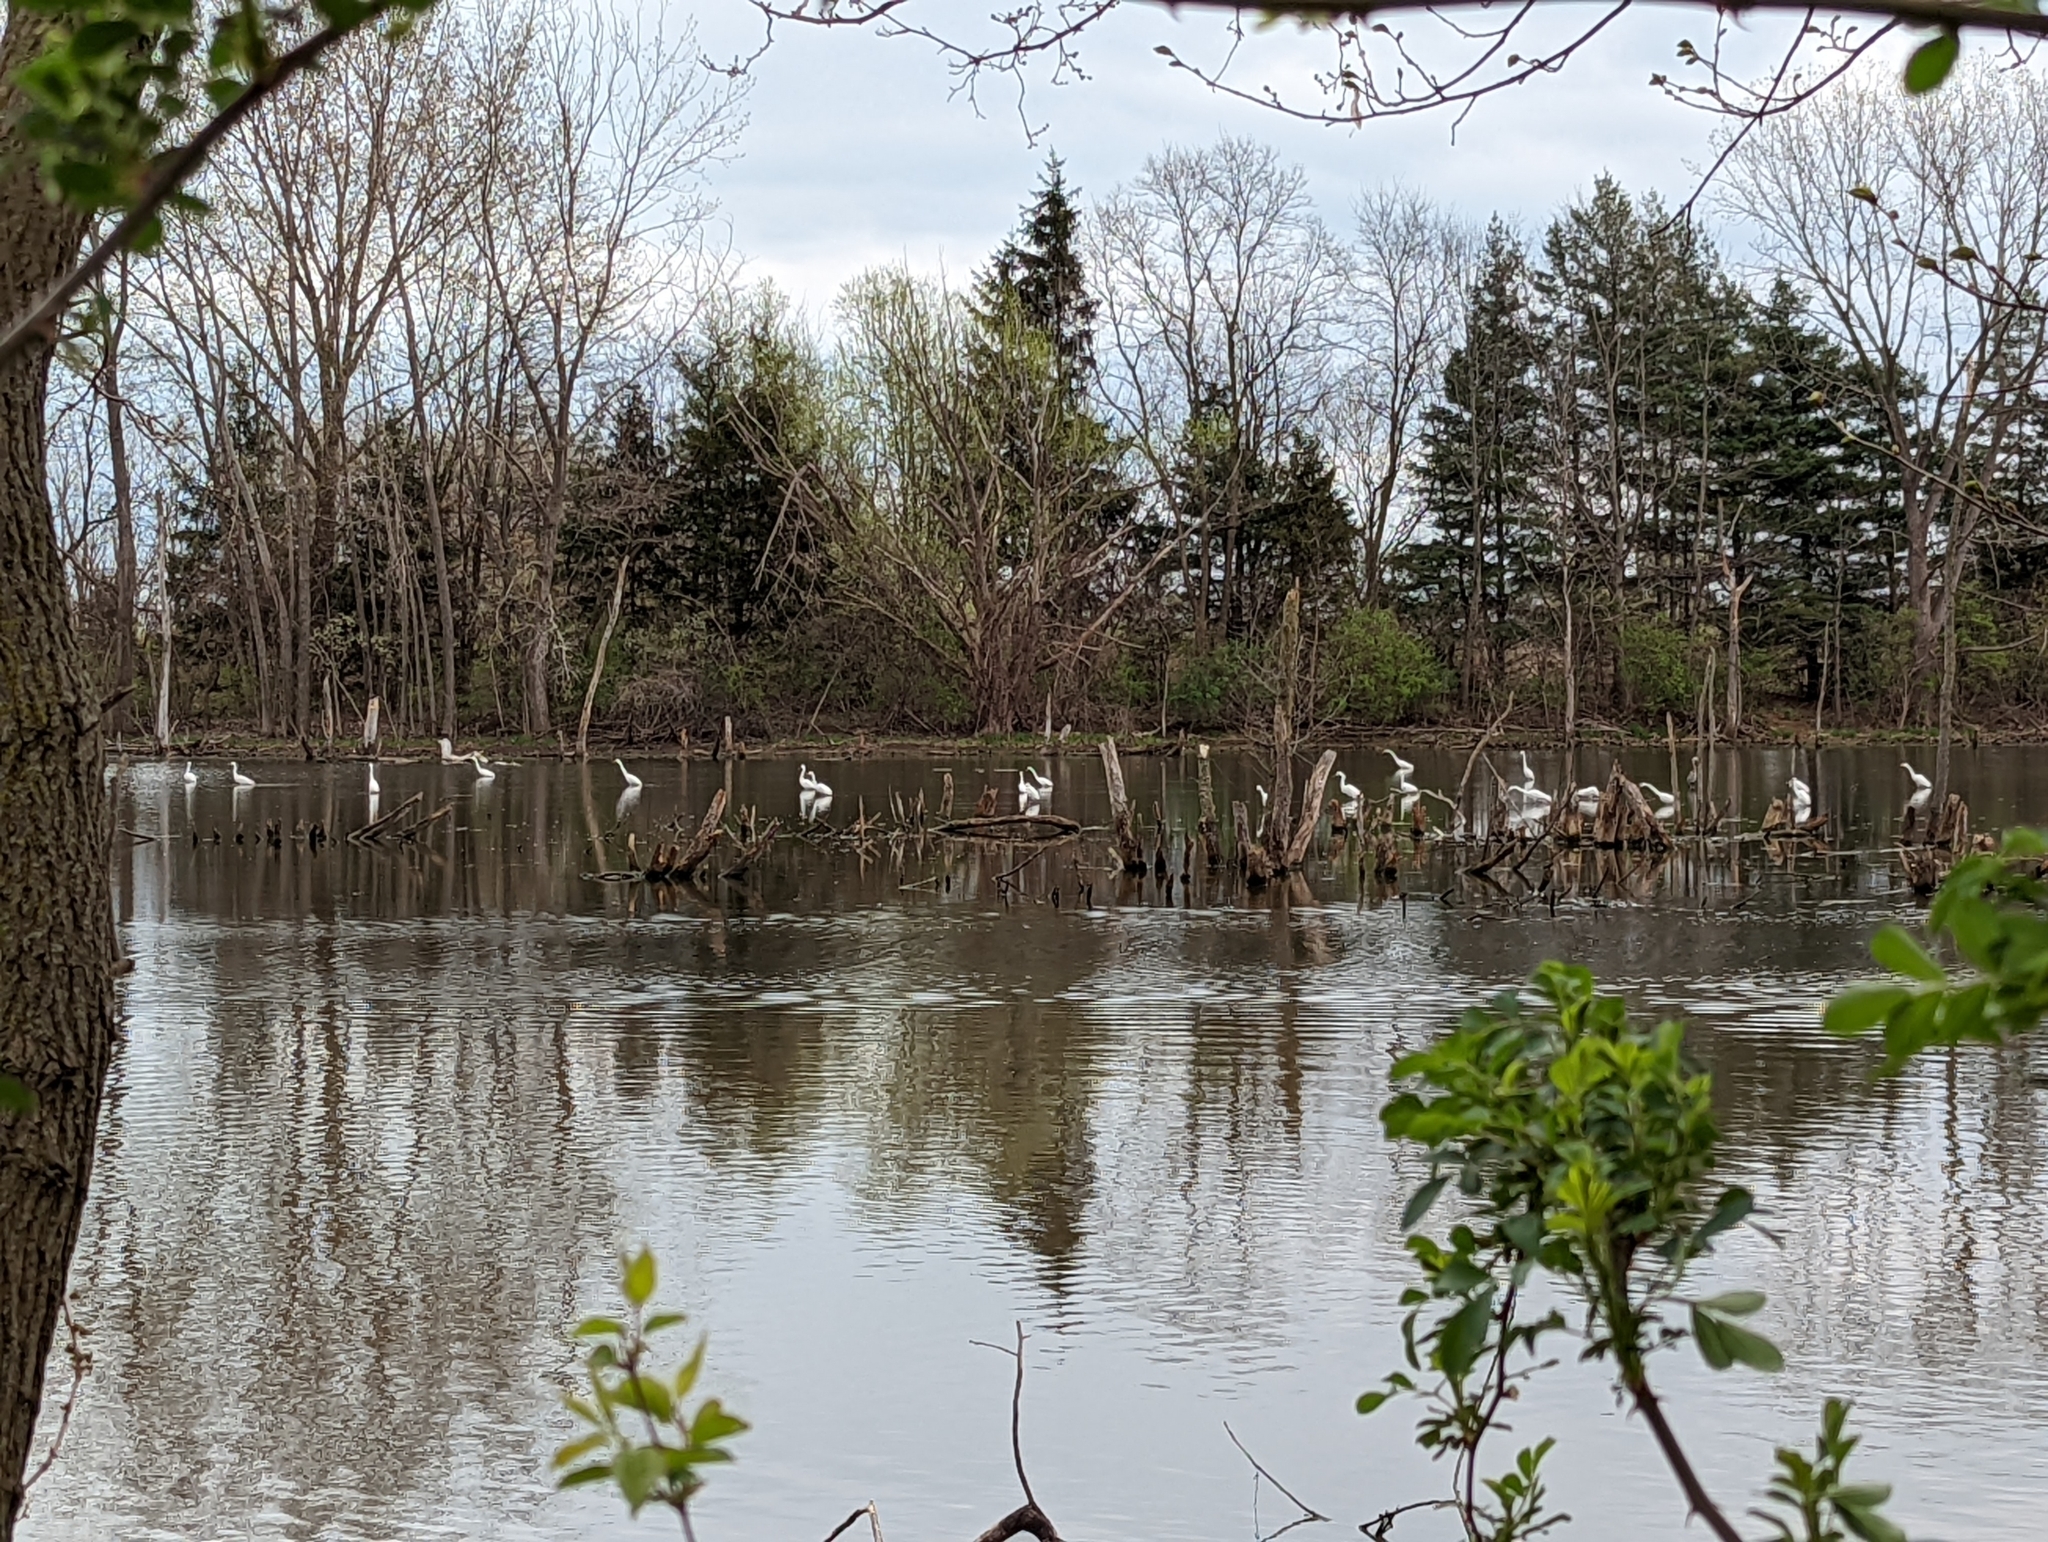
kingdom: Animalia
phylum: Chordata
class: Aves
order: Pelecaniformes
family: Ardeidae
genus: Ardea
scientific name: Ardea alba
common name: Great egret
